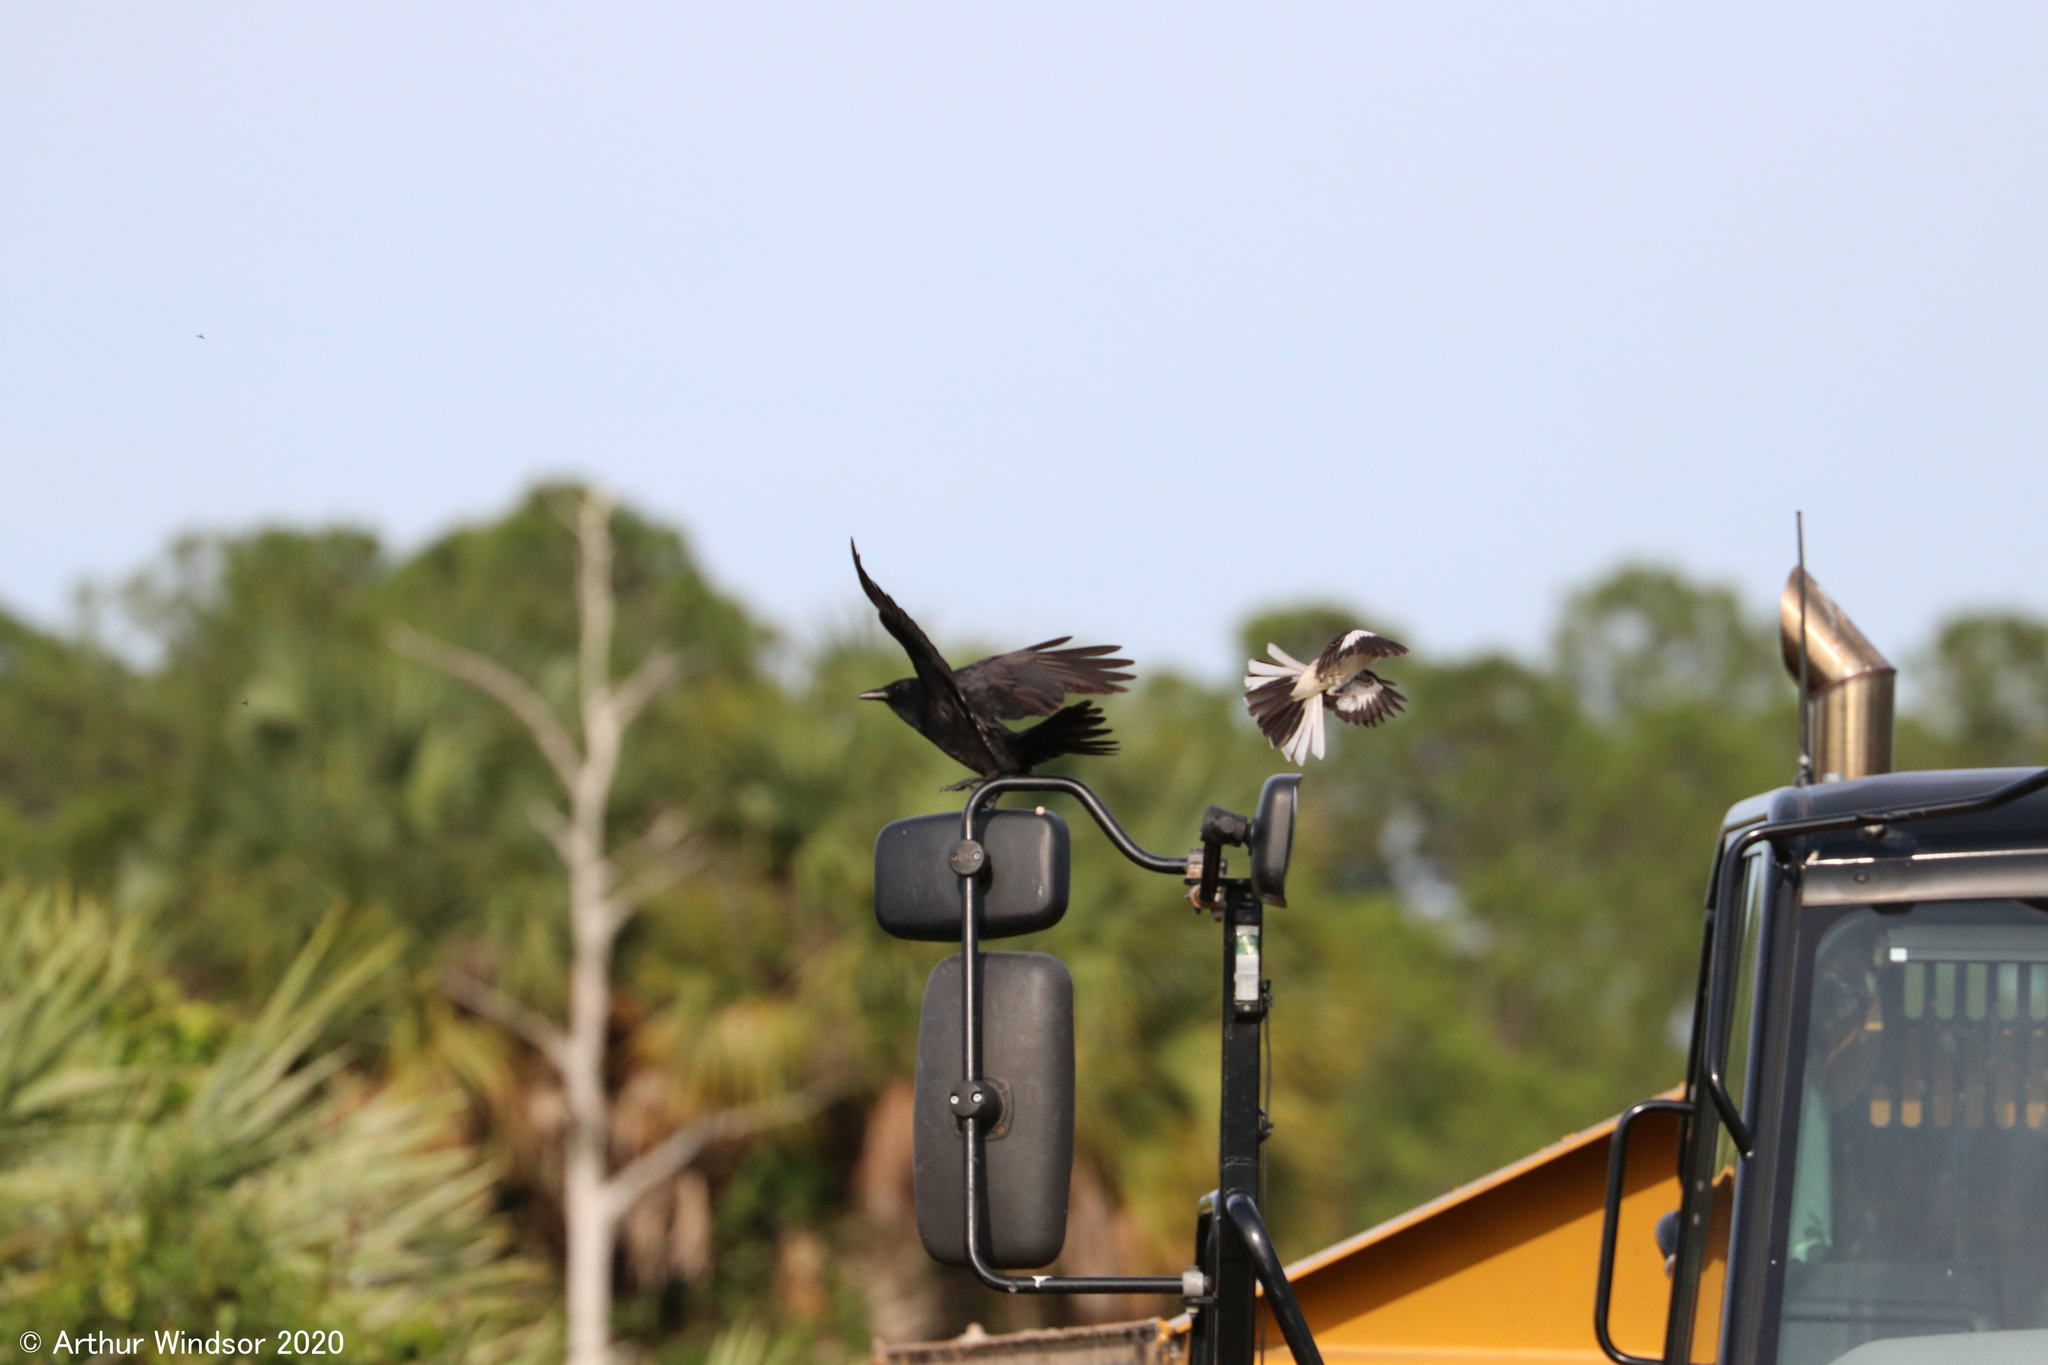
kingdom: Animalia
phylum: Chordata
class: Aves
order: Passeriformes
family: Mimidae
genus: Mimus
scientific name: Mimus polyglottos
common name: Northern mockingbird
